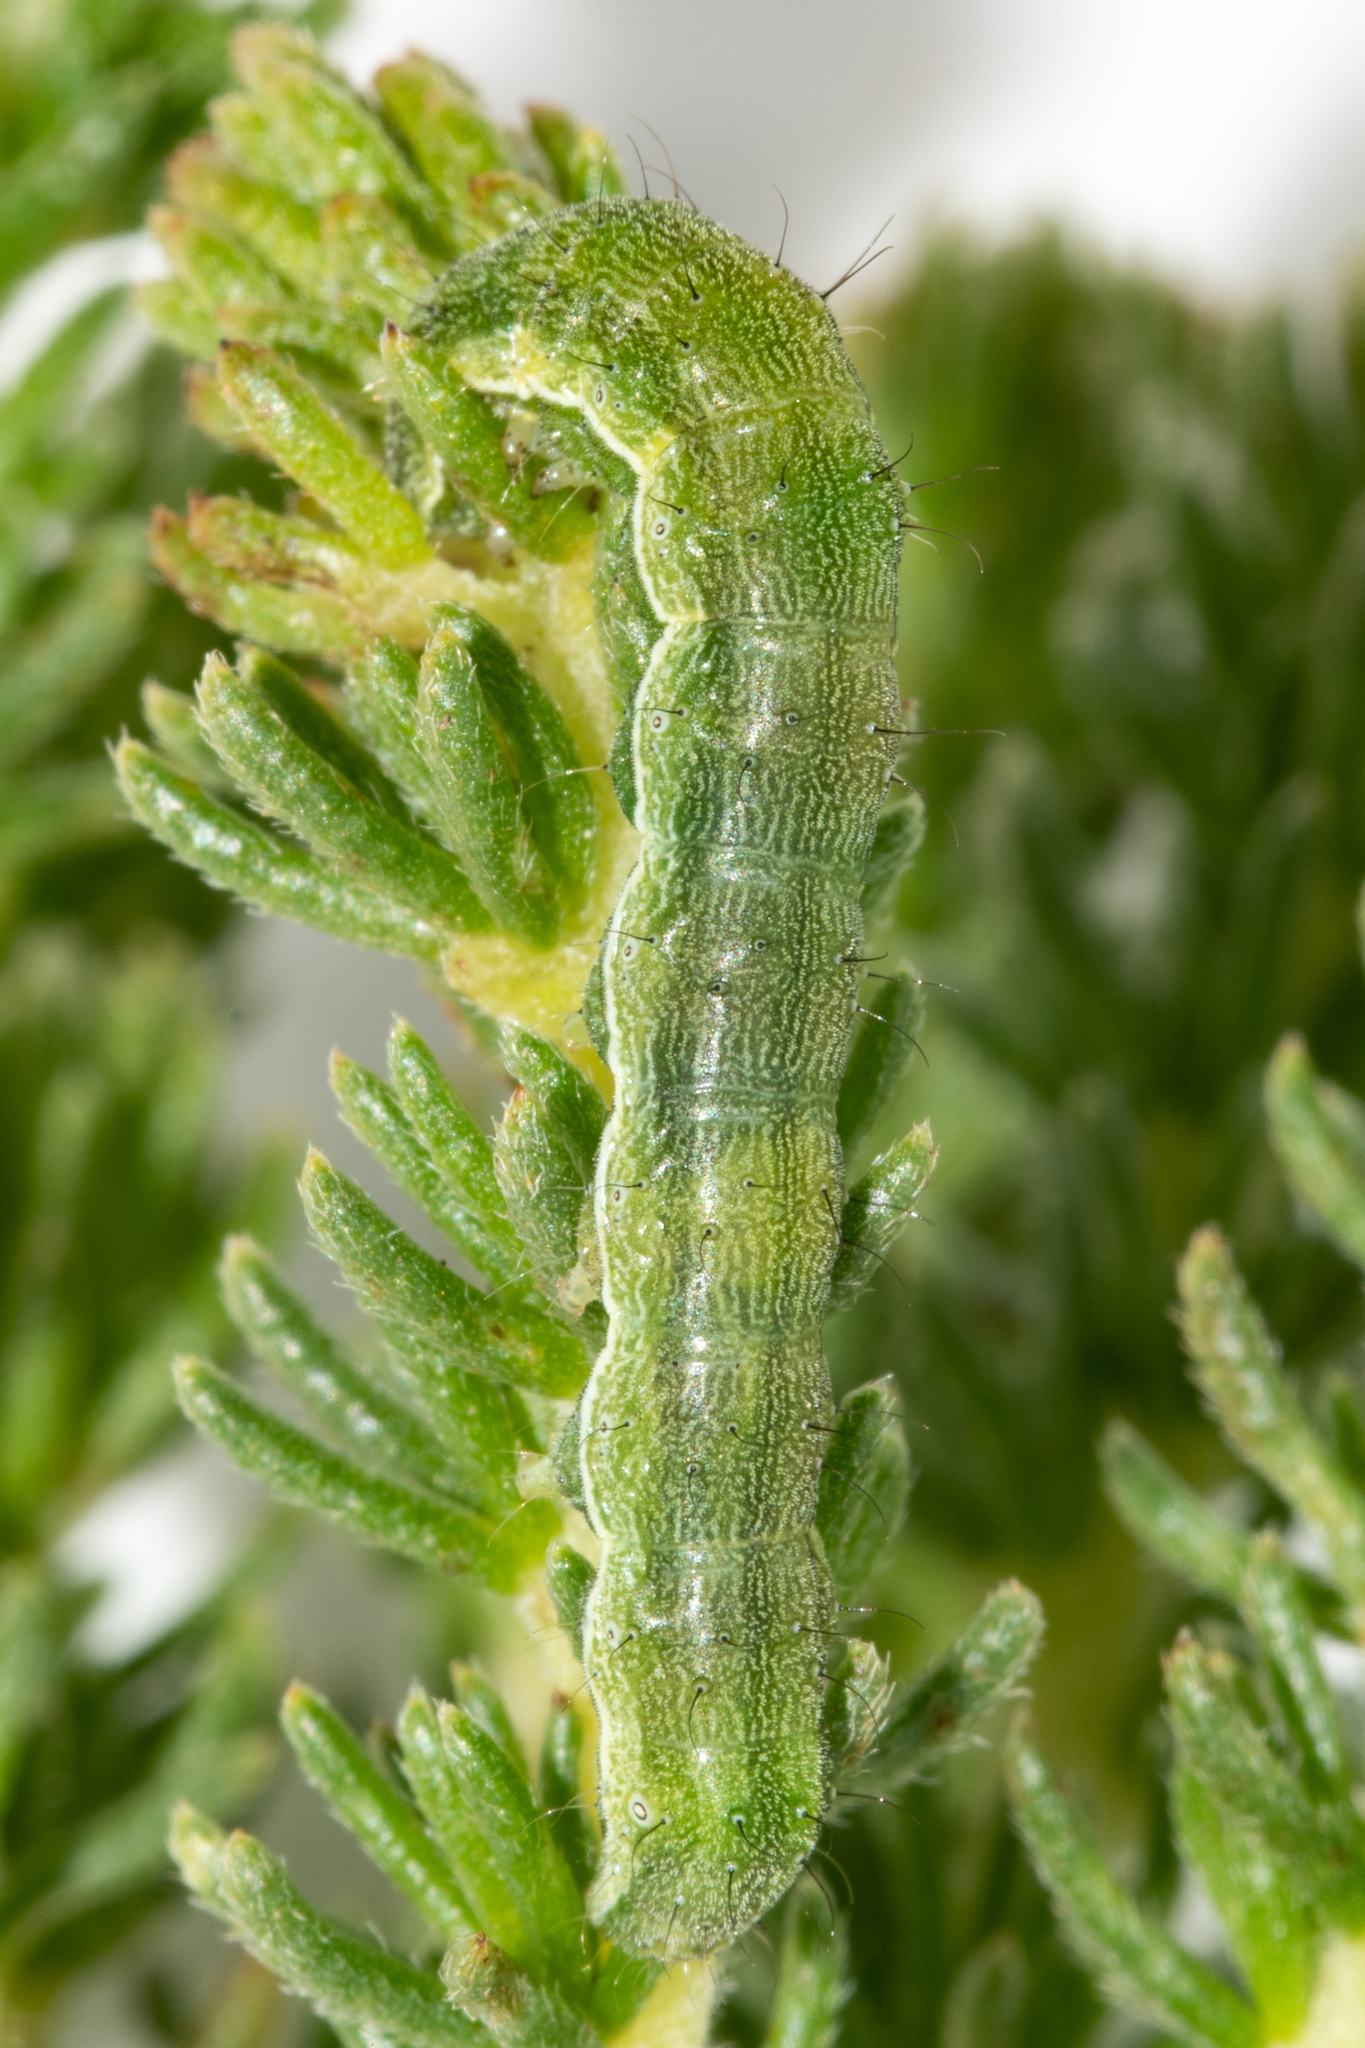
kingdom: Animalia
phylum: Arthropoda
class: Insecta
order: Lepidoptera
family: Noctuidae
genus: Helicoverpa
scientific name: Helicoverpa armigera
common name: Cotton bollworm
